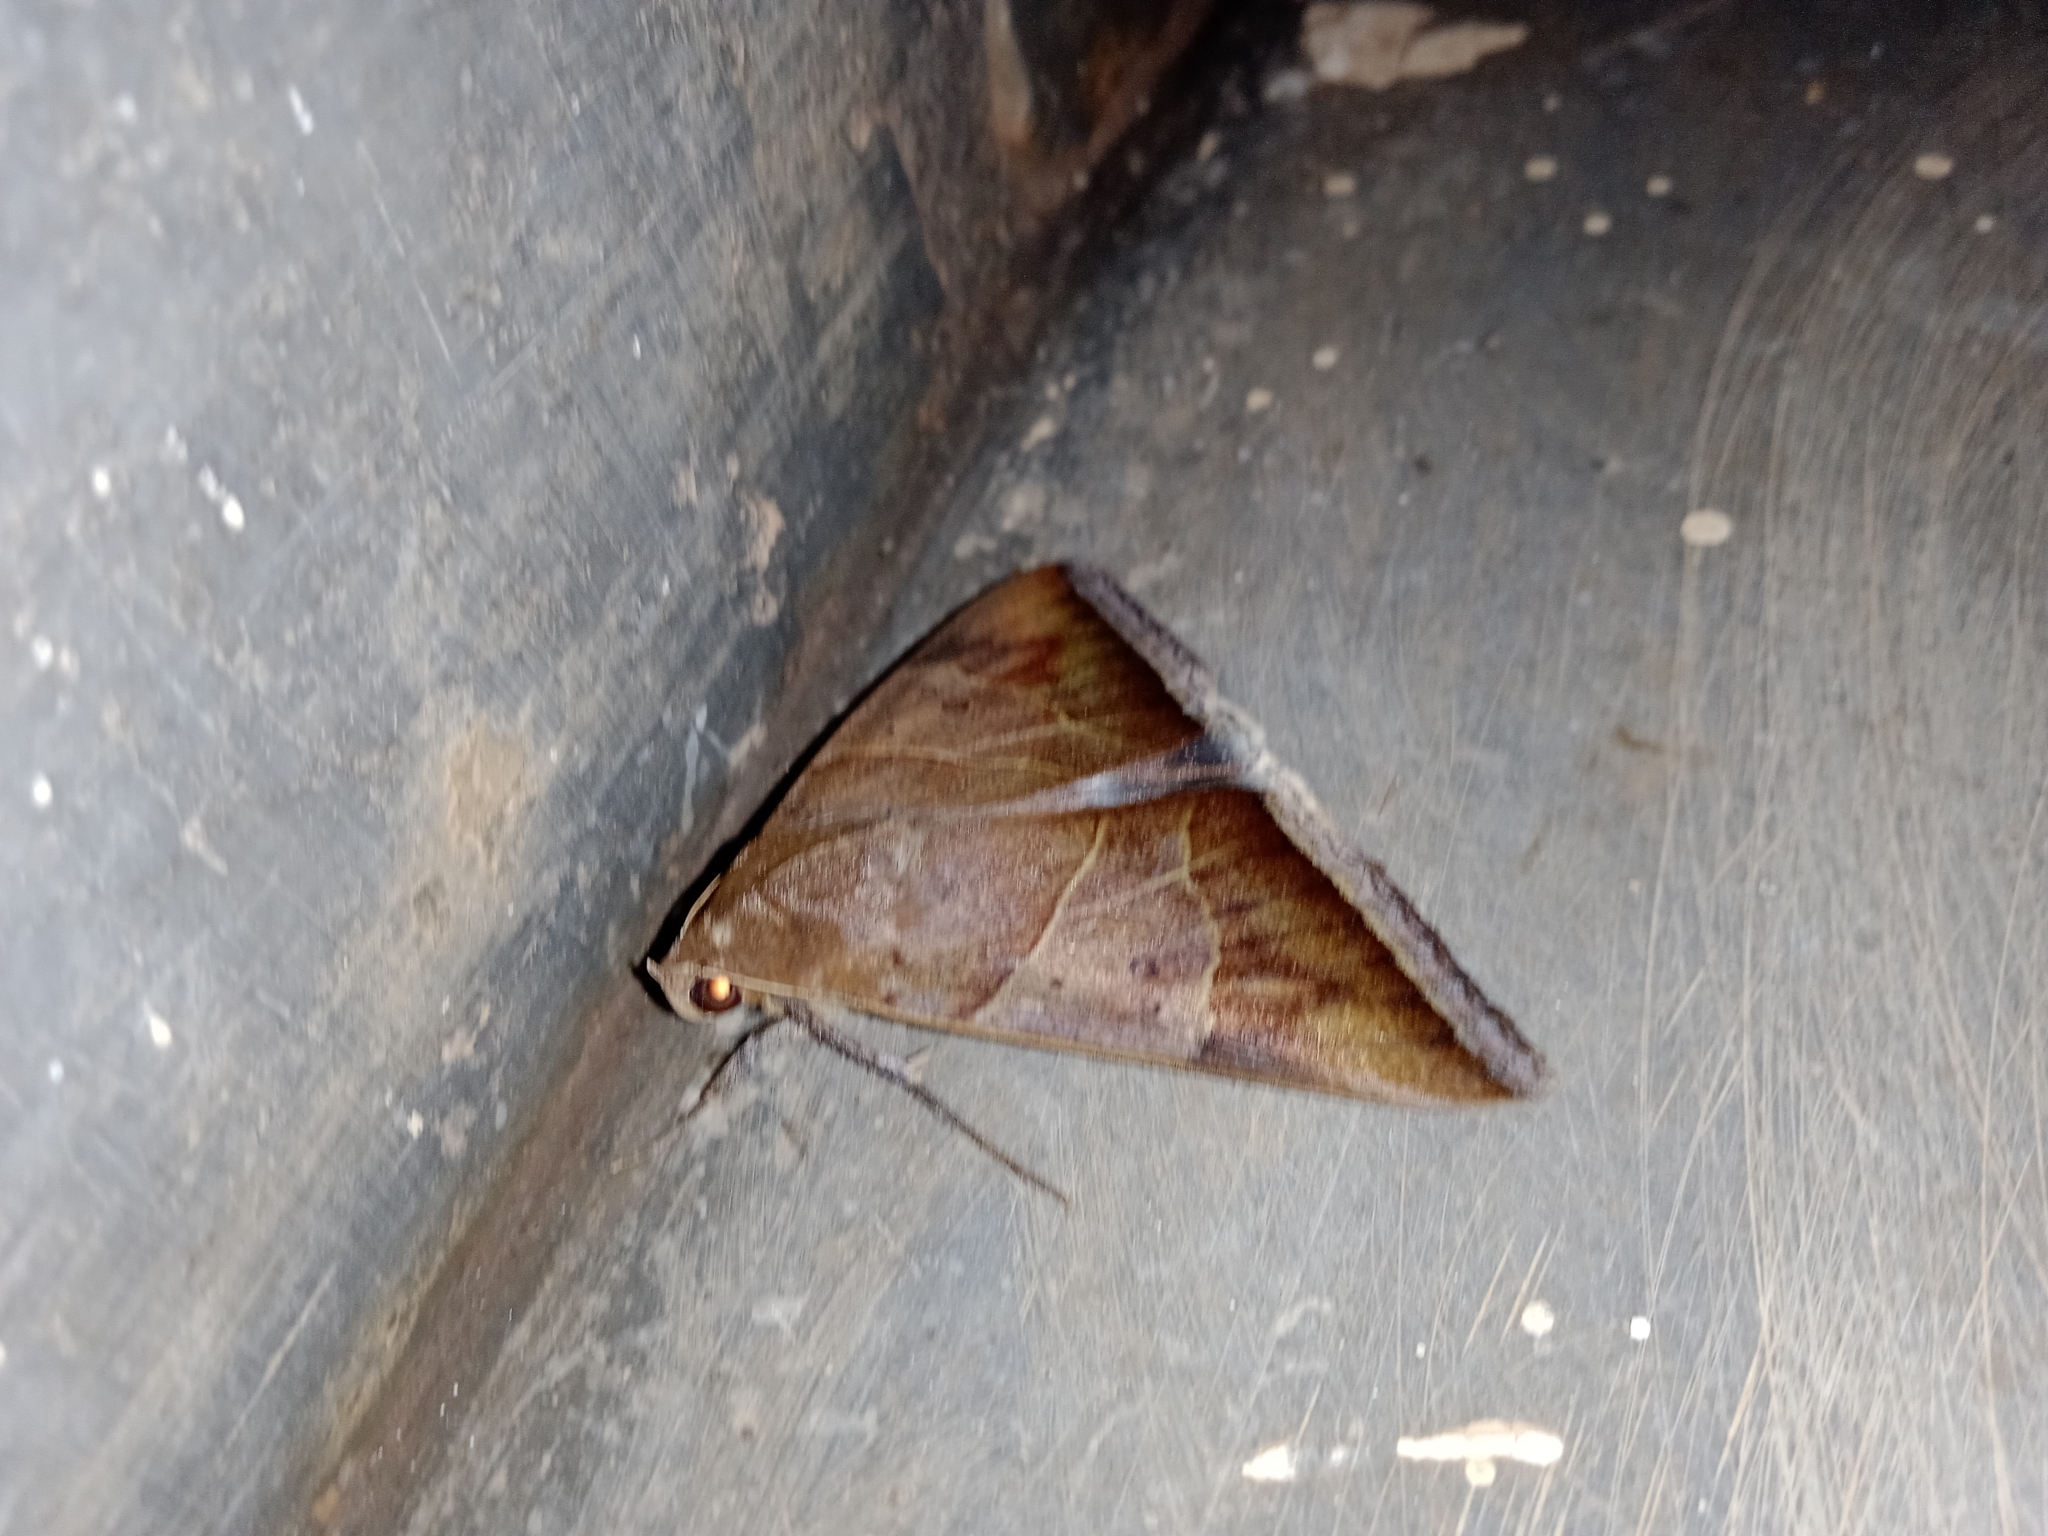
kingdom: Animalia
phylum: Arthropoda
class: Insecta
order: Lepidoptera
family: Erebidae
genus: Artena
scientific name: Artena dotata
